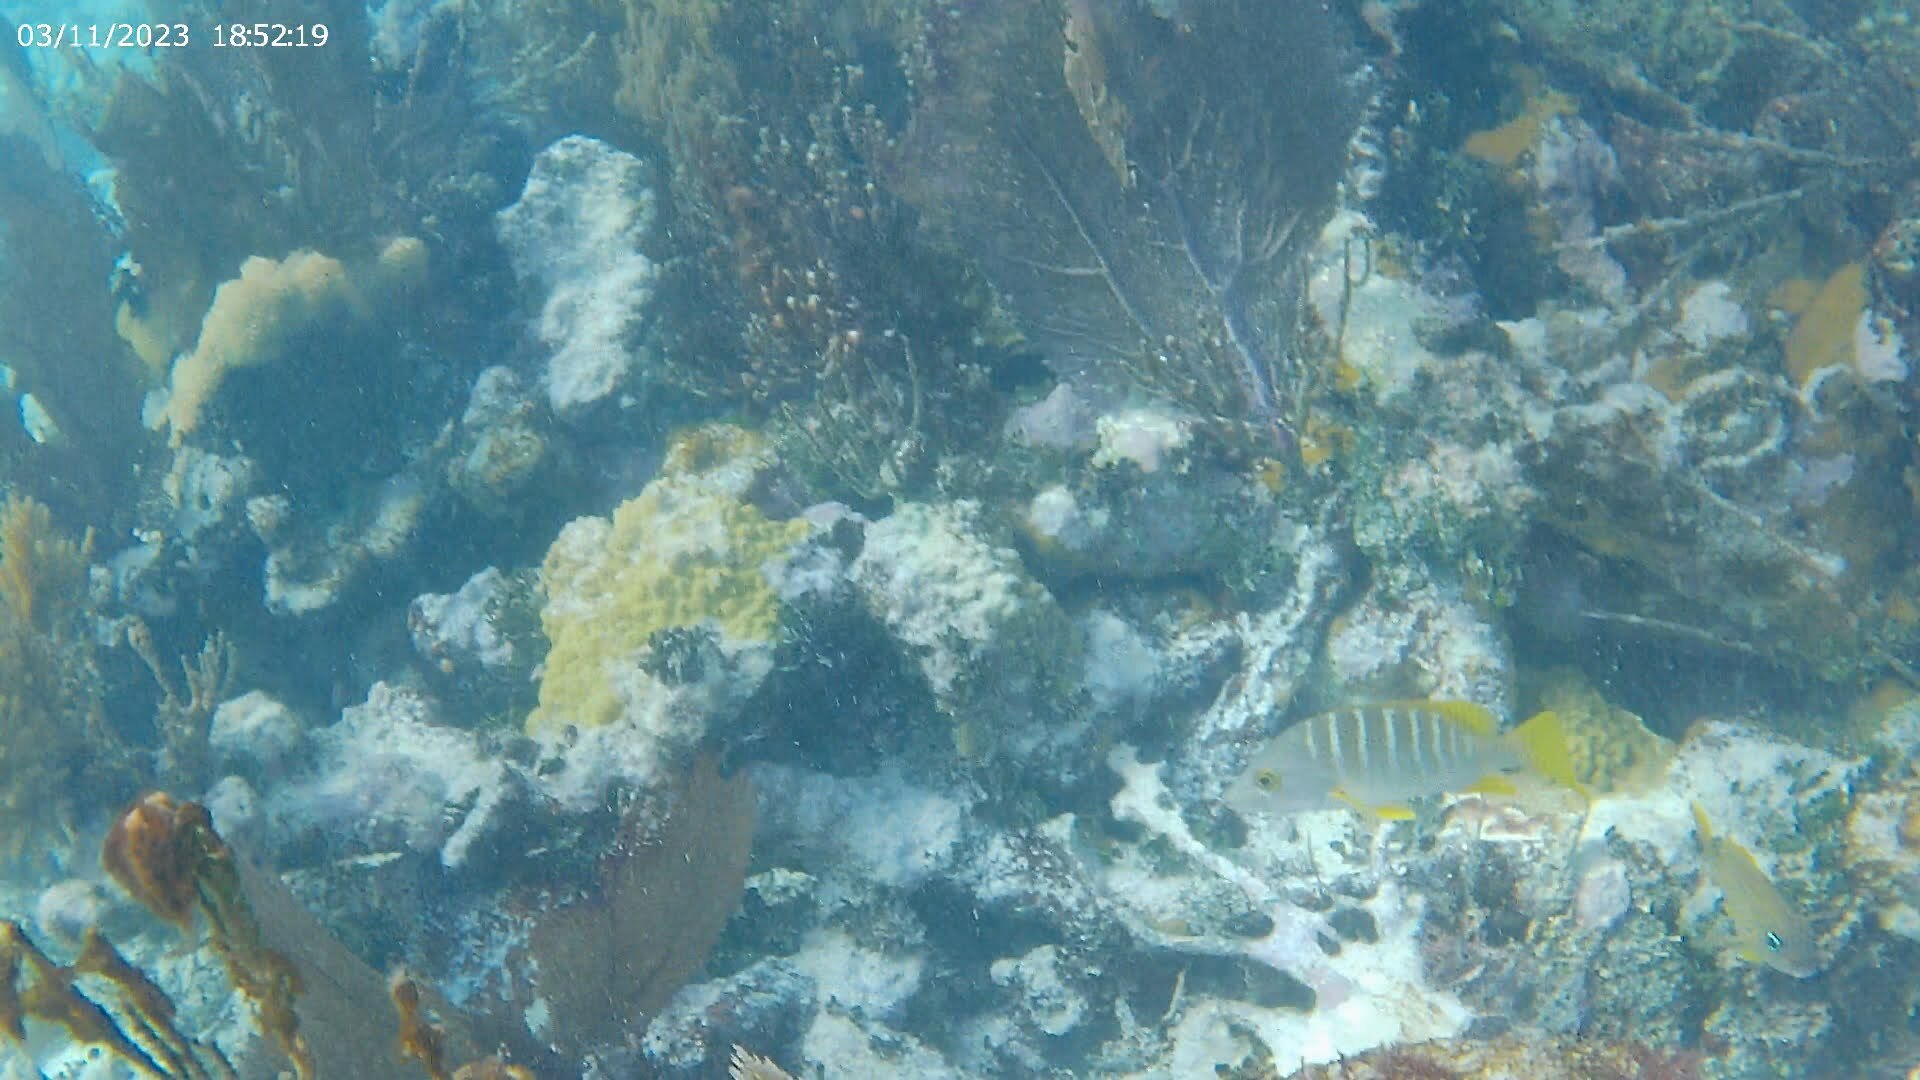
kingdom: Animalia
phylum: Chordata
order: Perciformes
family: Lutjanidae
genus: Lutjanus
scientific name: Lutjanus apodus
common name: Schoolmaster
